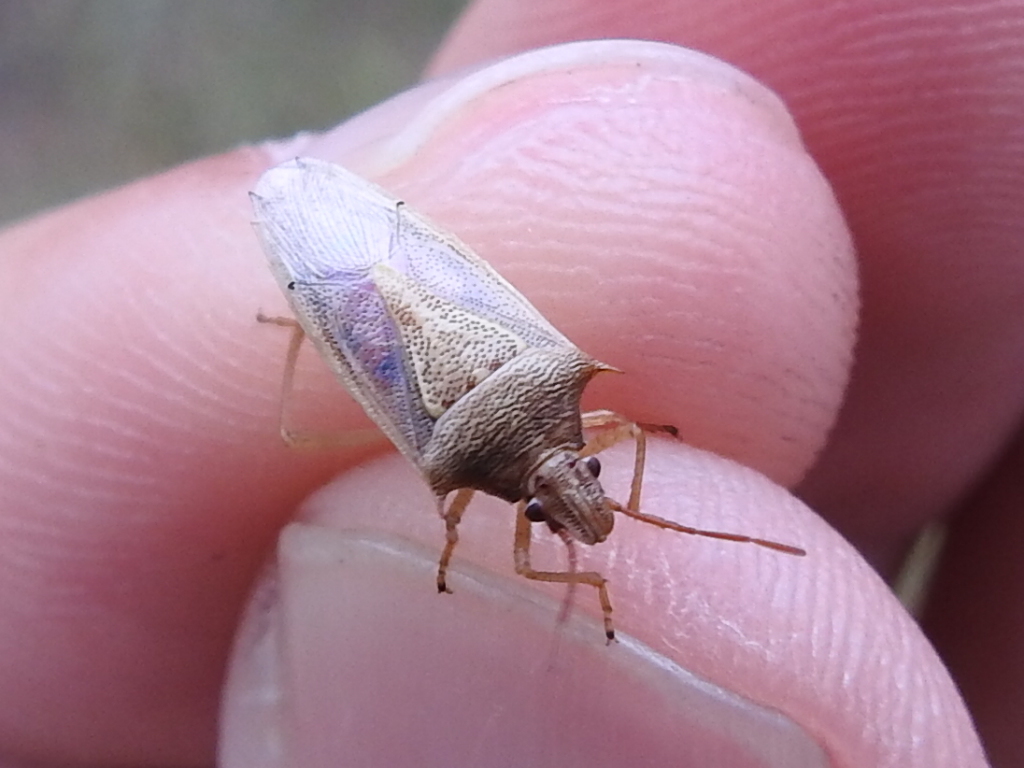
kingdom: Animalia
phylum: Arthropoda
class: Insecta
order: Hemiptera
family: Pentatomidae
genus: Oebalus
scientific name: Oebalus pugnax
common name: Rice stink bug
